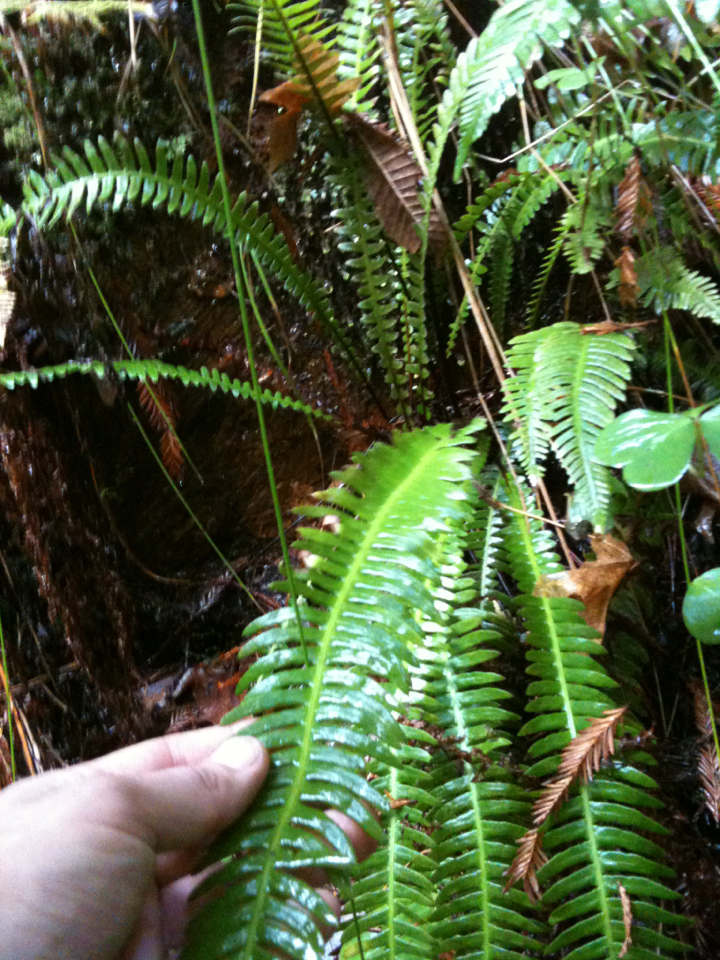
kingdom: Plantae
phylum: Tracheophyta
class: Polypodiopsida
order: Polypodiales
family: Blechnaceae
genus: Struthiopteris
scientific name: Struthiopteris spicant
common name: Deer fern
